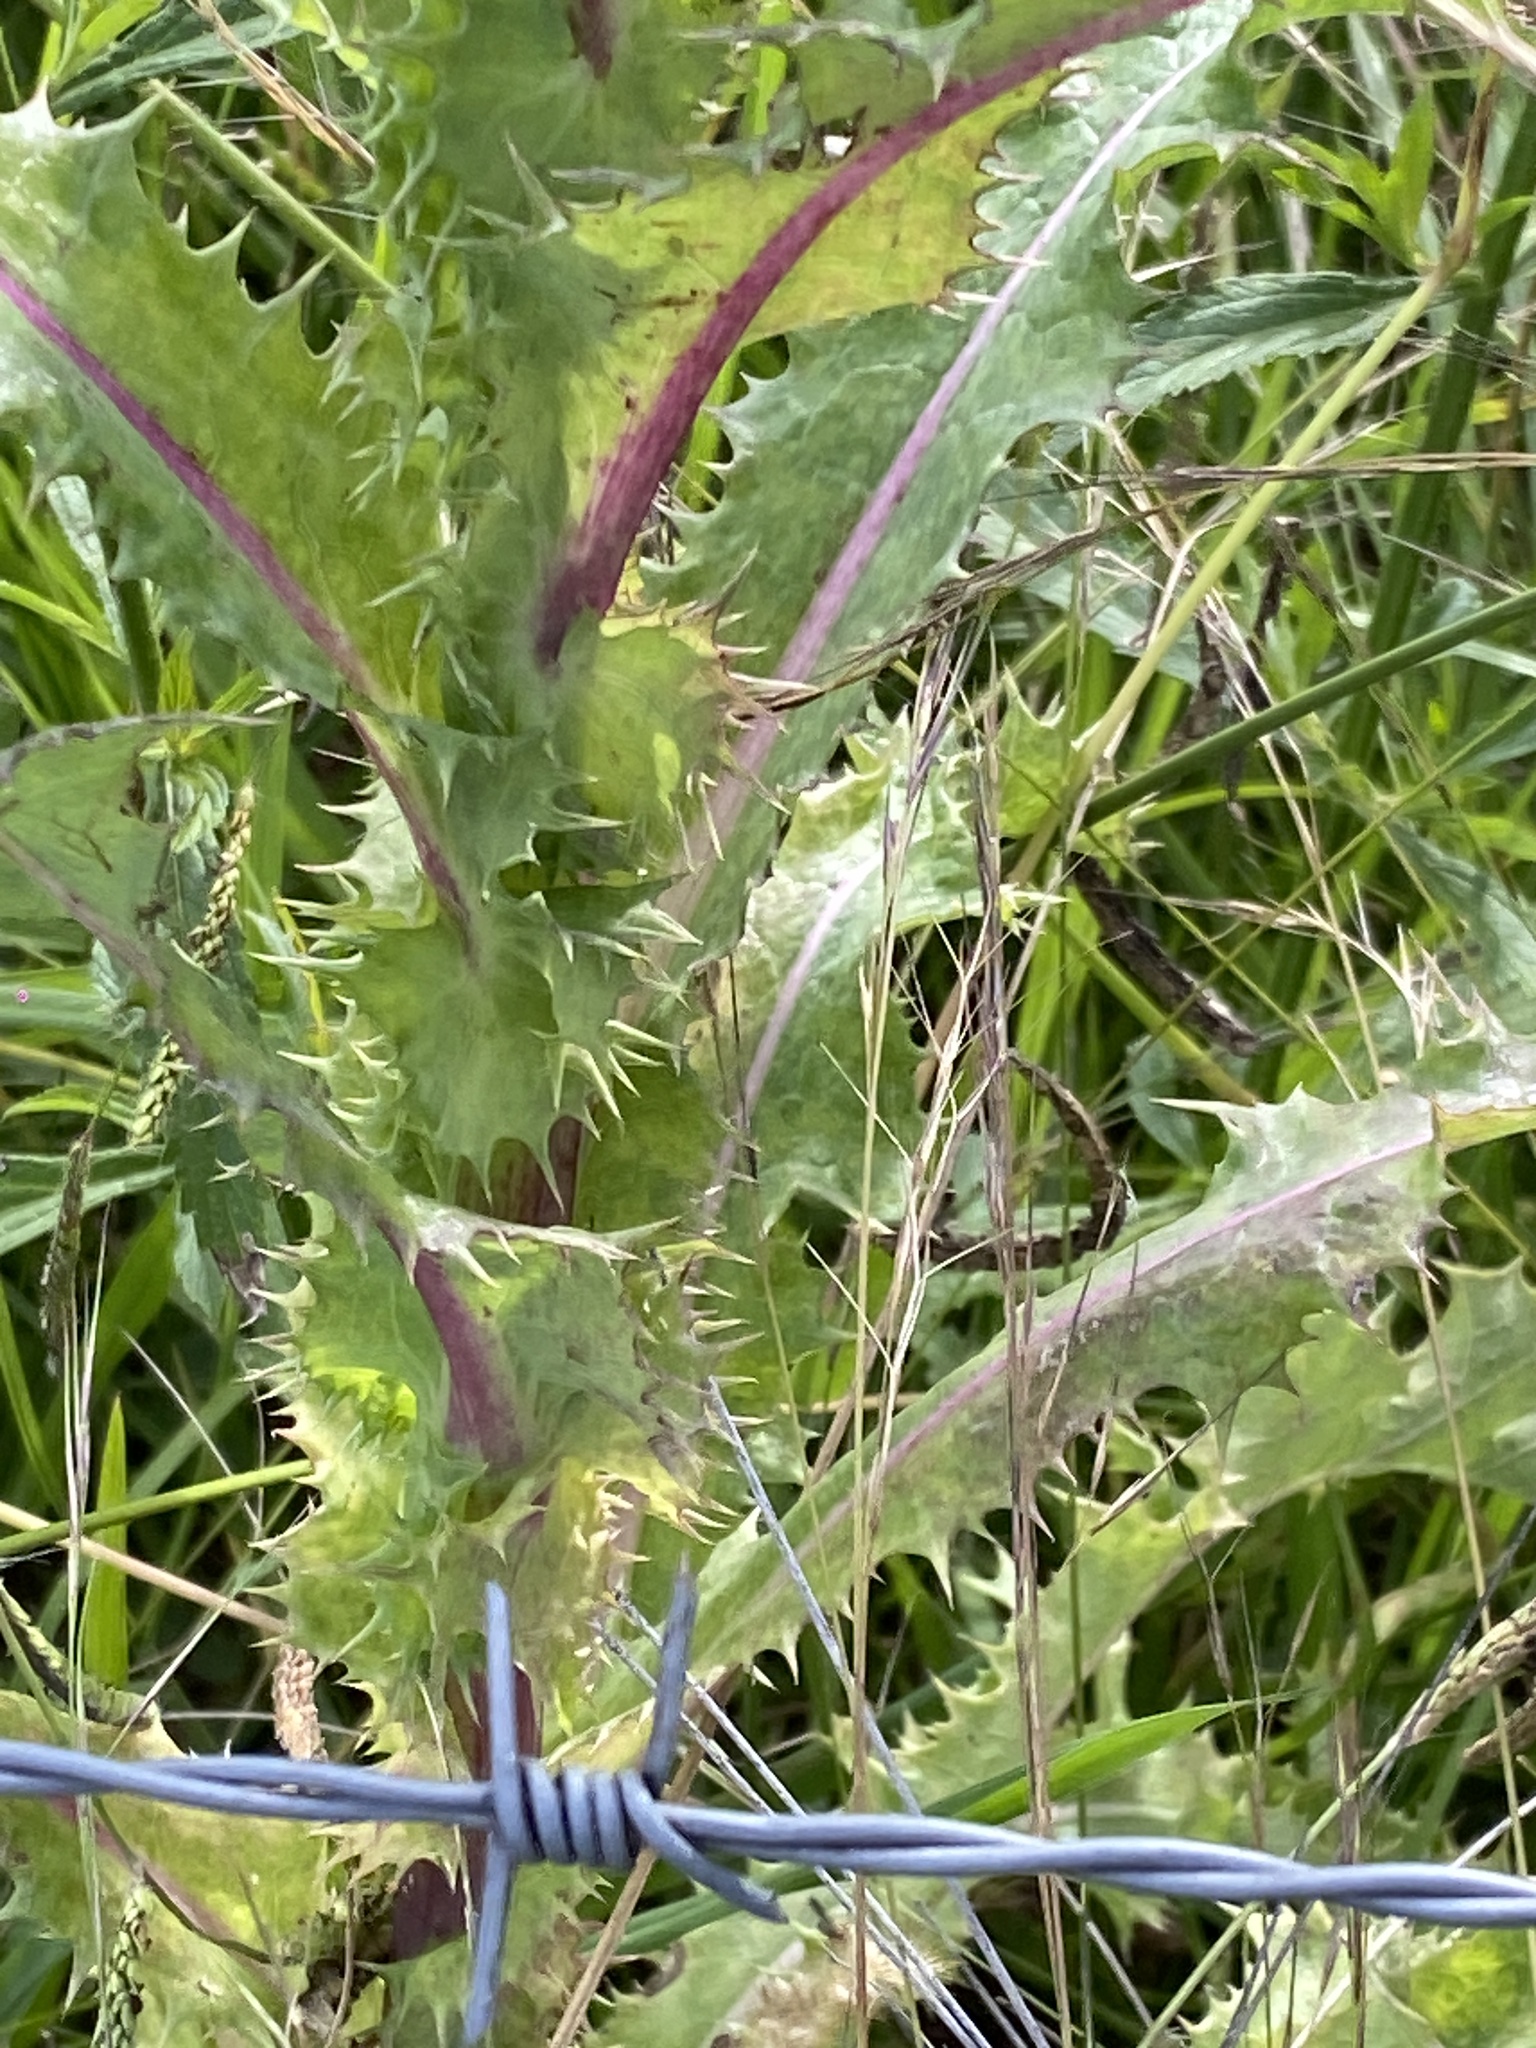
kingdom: Plantae
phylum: Tracheophyta
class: Magnoliopsida
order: Asterales
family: Asteraceae
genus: Sonchus
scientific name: Sonchus asper
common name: Prickly sow-thistle
